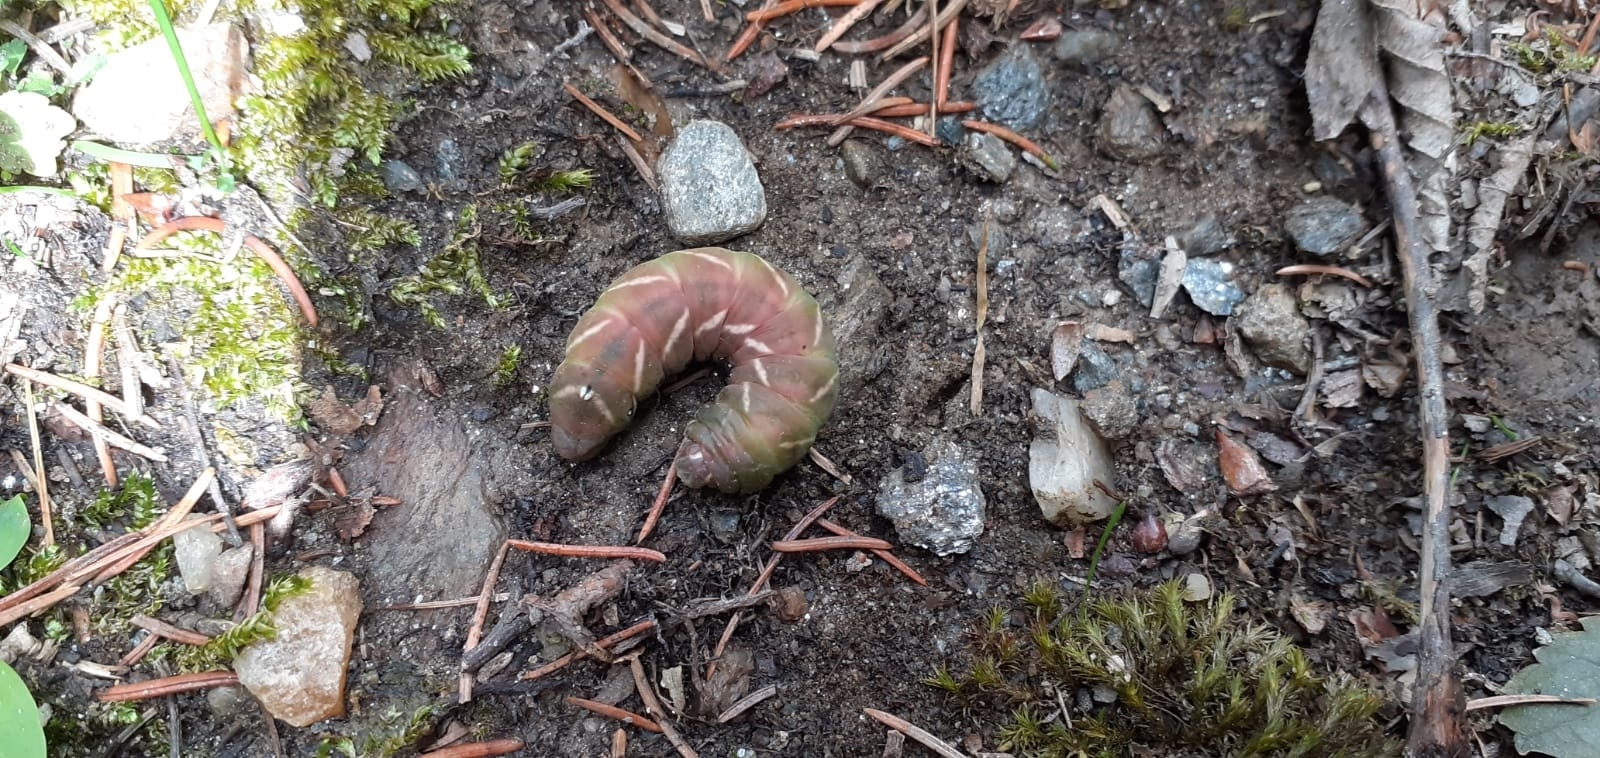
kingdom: Animalia
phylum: Arthropoda
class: Insecta
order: Lepidoptera
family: Endromidae
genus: Endromis
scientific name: Endromis versicolora
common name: Kentish glory
